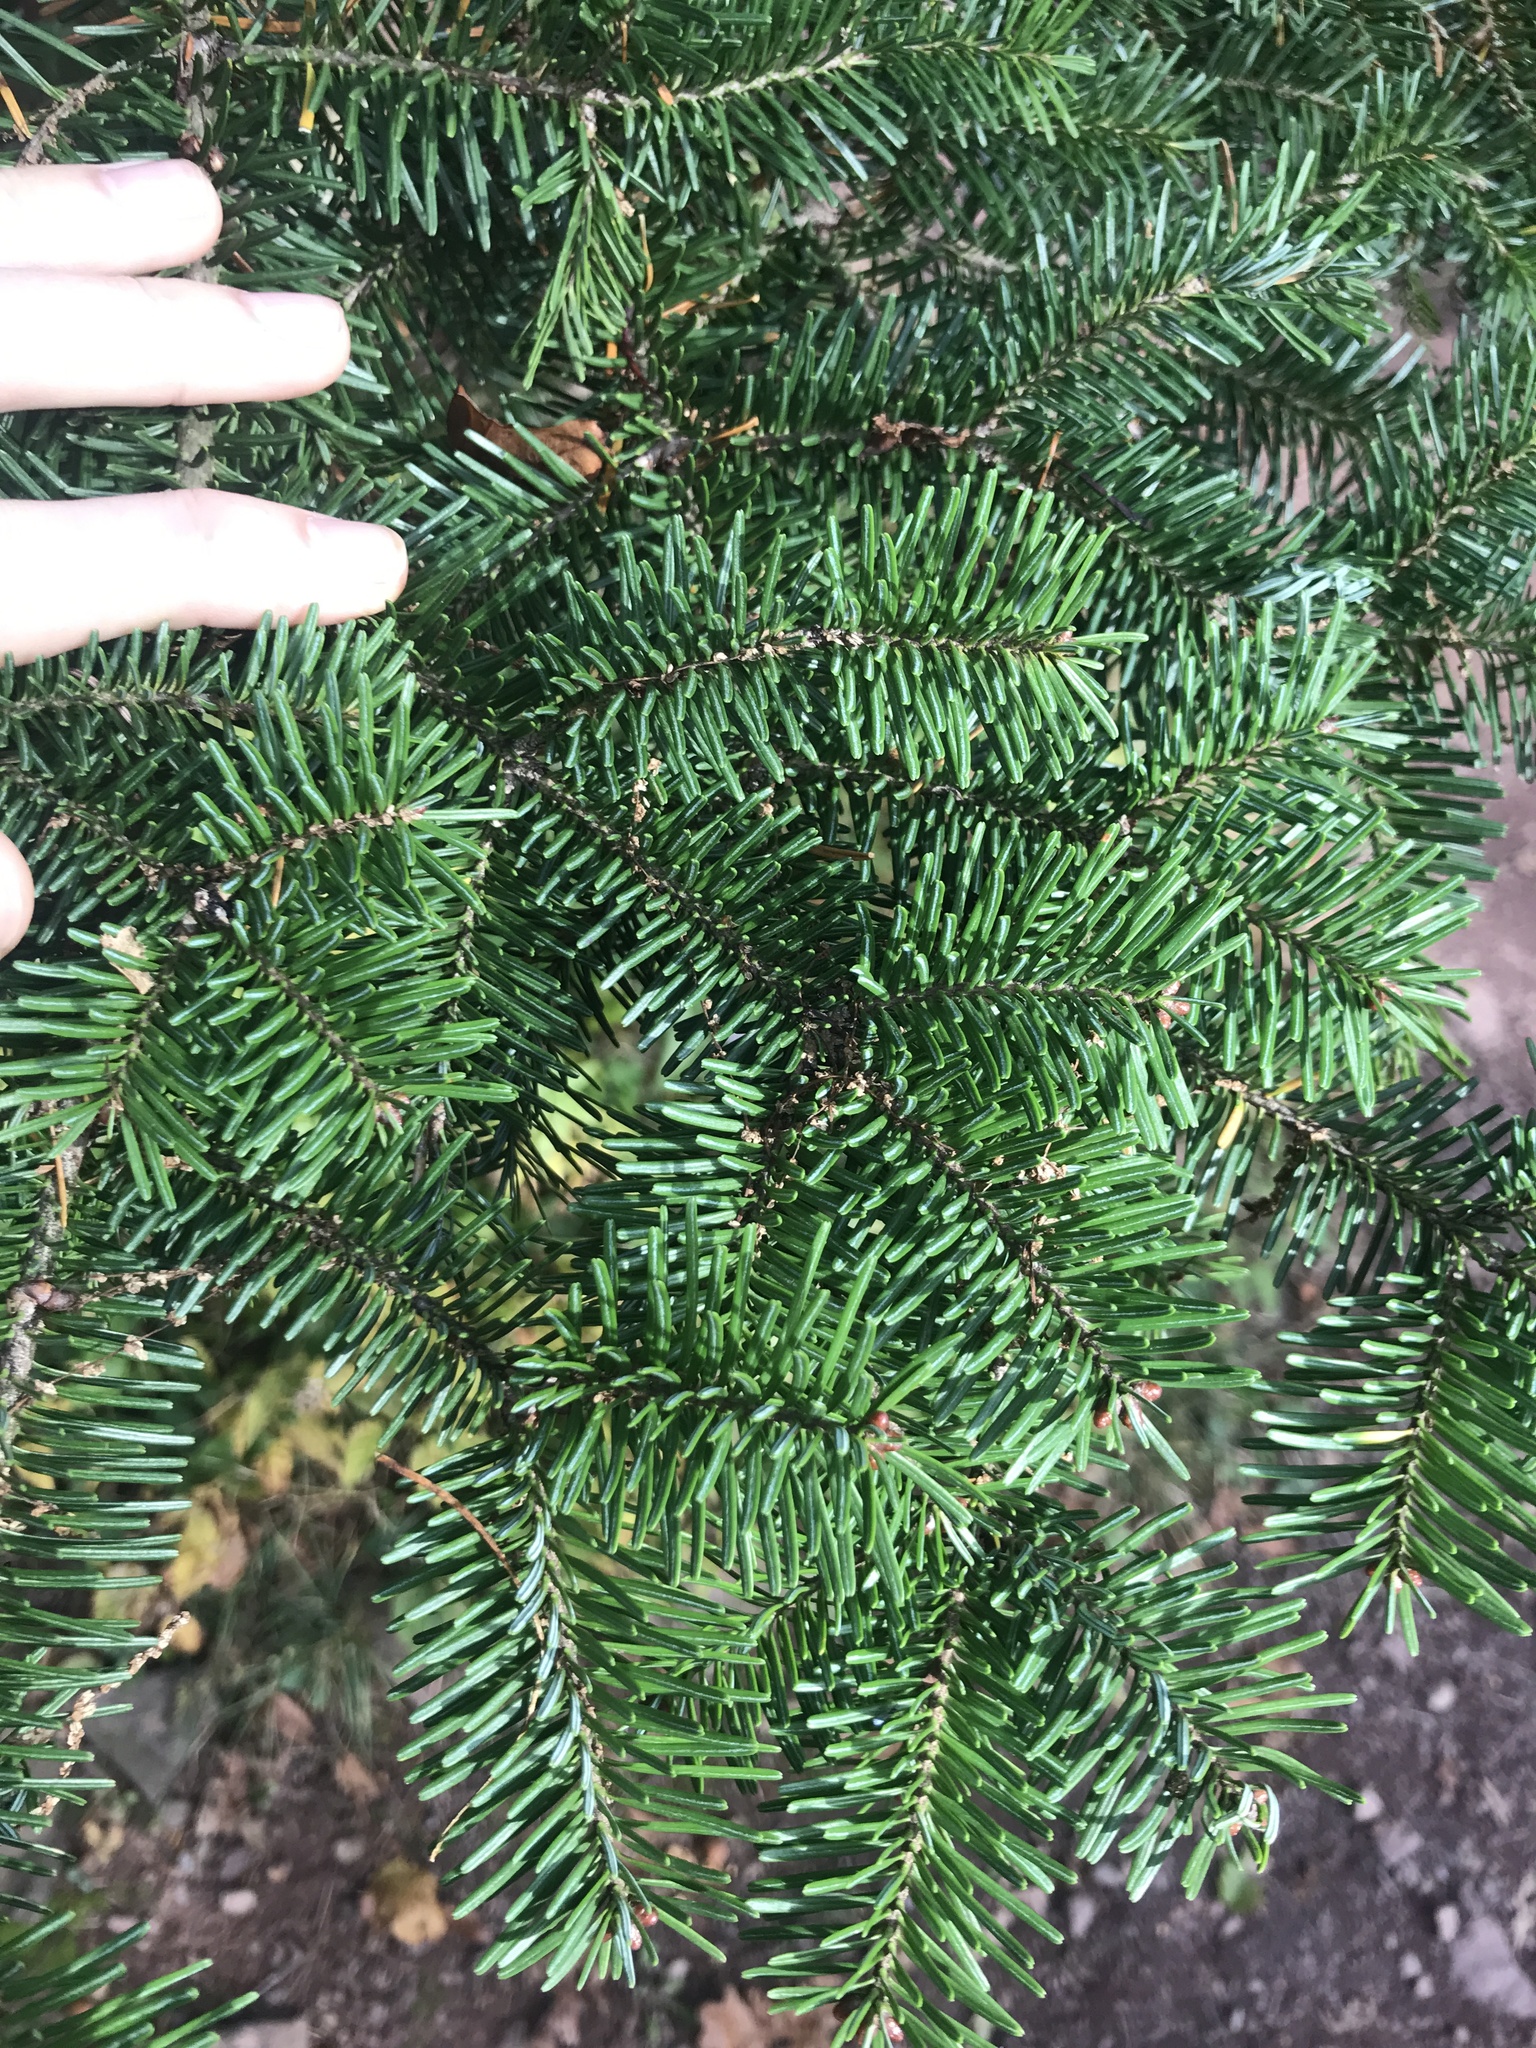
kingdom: Plantae
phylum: Tracheophyta
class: Pinopsida
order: Pinales
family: Pinaceae
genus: Abies
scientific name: Abies balsamea
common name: Balsam fir
